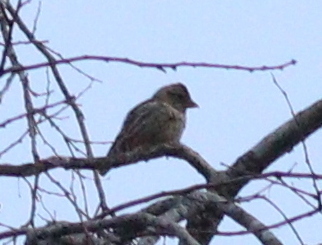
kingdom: Animalia
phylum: Chordata
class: Aves
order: Passeriformes
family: Passeridae
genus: Petronia
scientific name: Petronia petronia
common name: Rock sparrow
